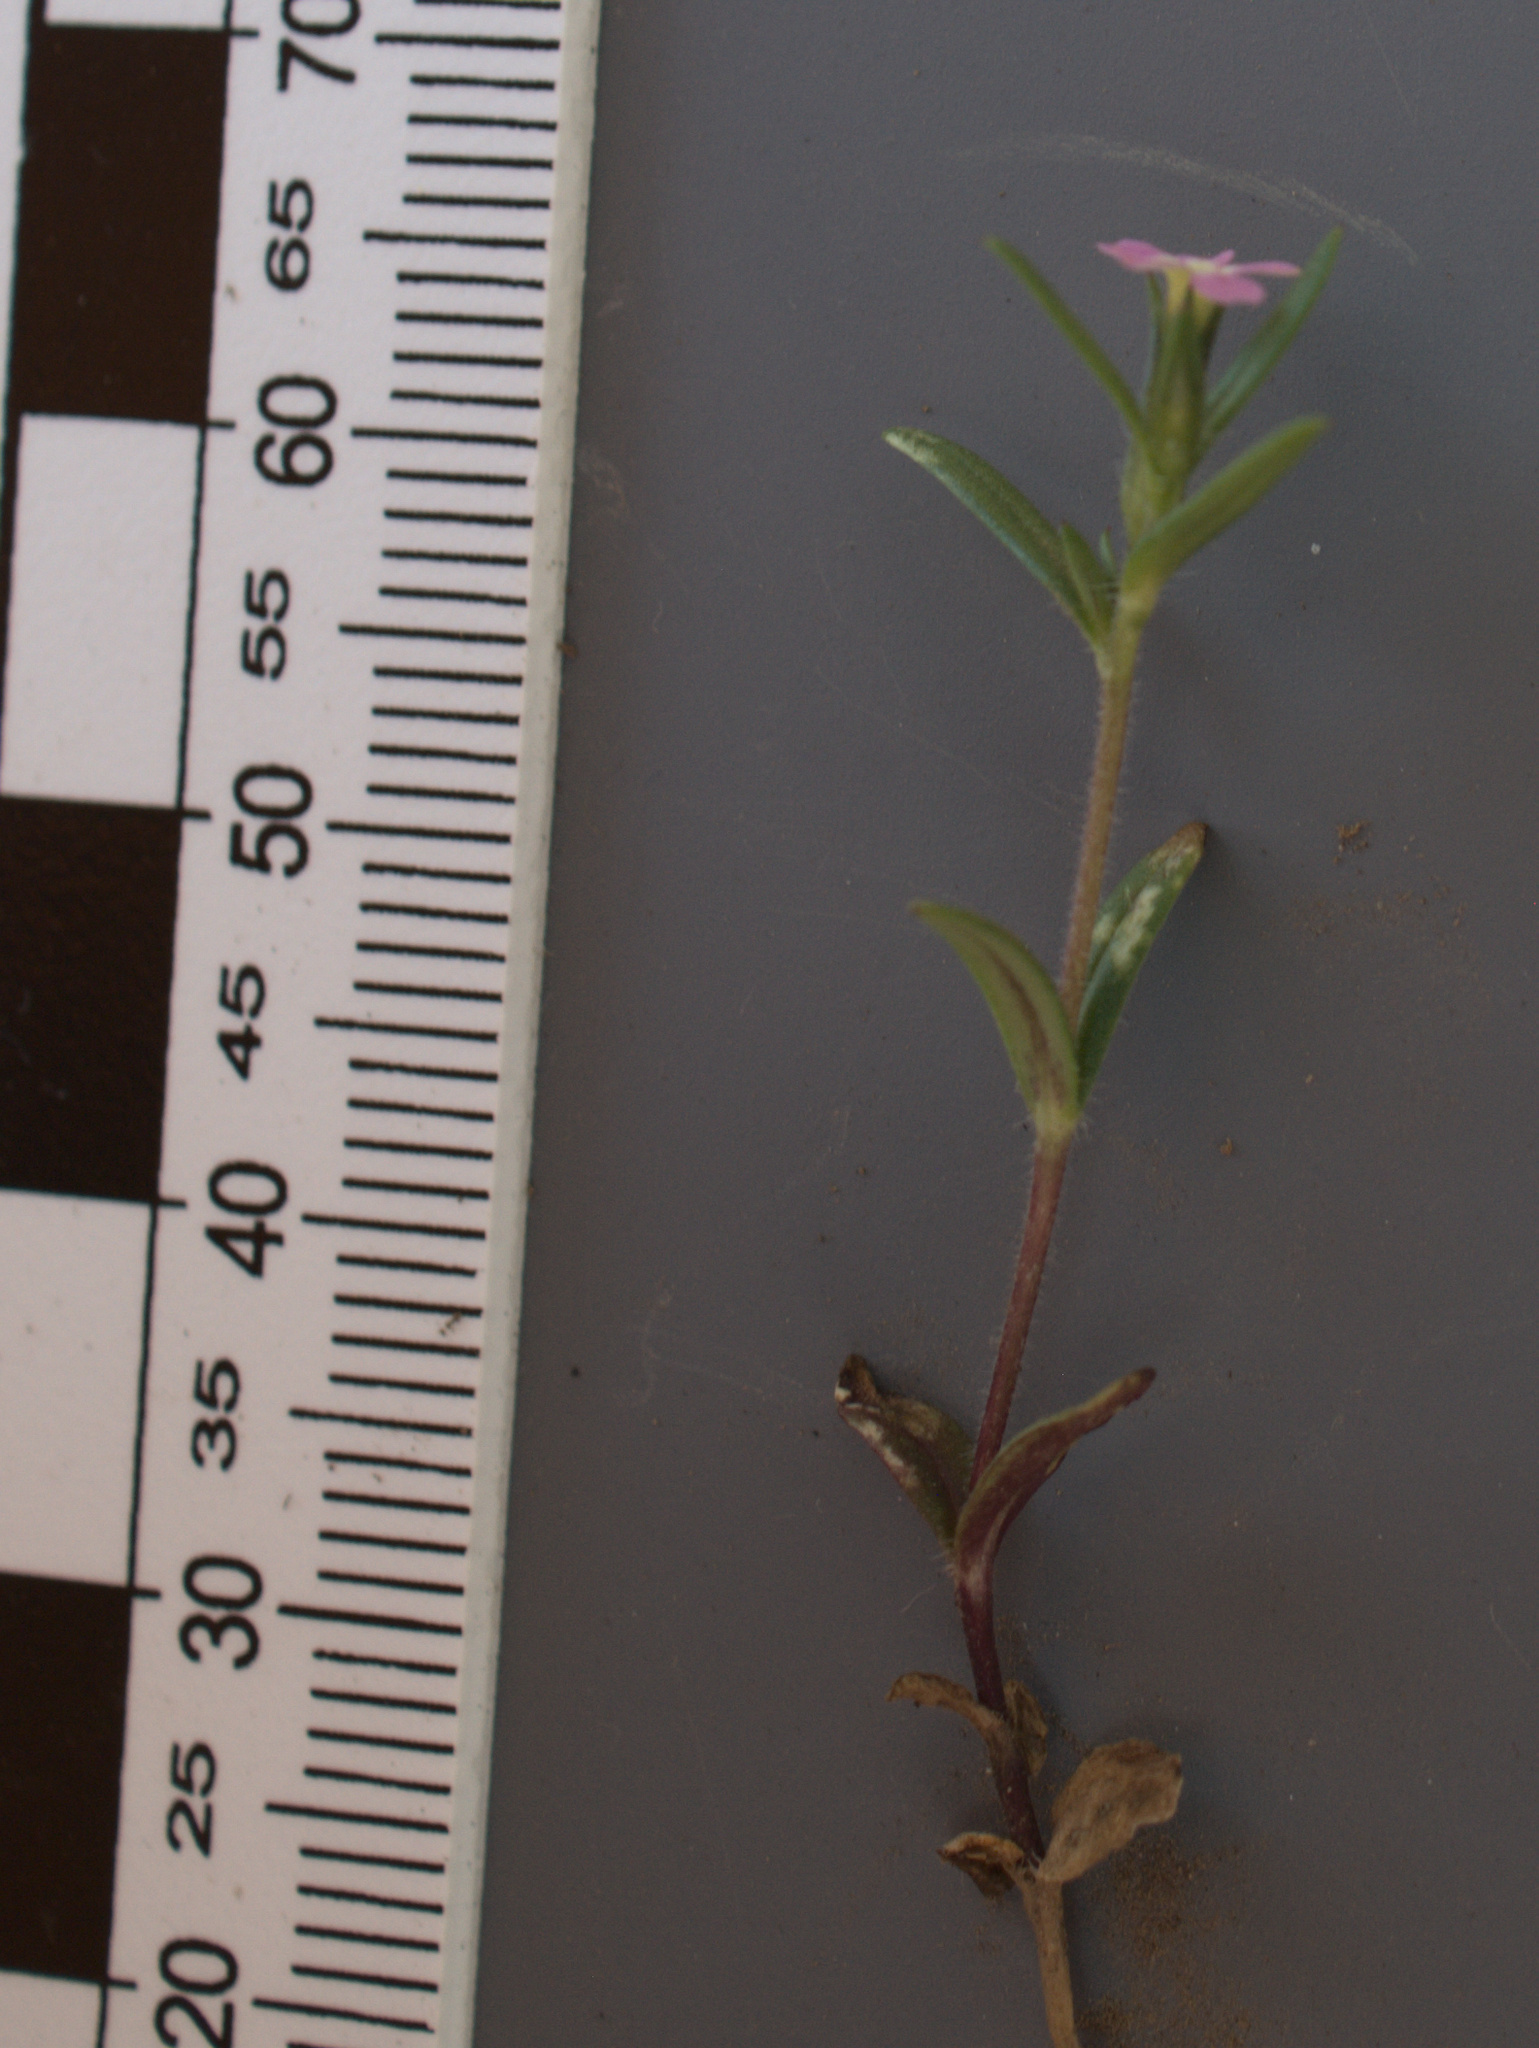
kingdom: Plantae
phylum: Tracheophyta
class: Magnoliopsida
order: Ericales
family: Polemoniaceae
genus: Phlox
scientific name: Phlox gracilis
